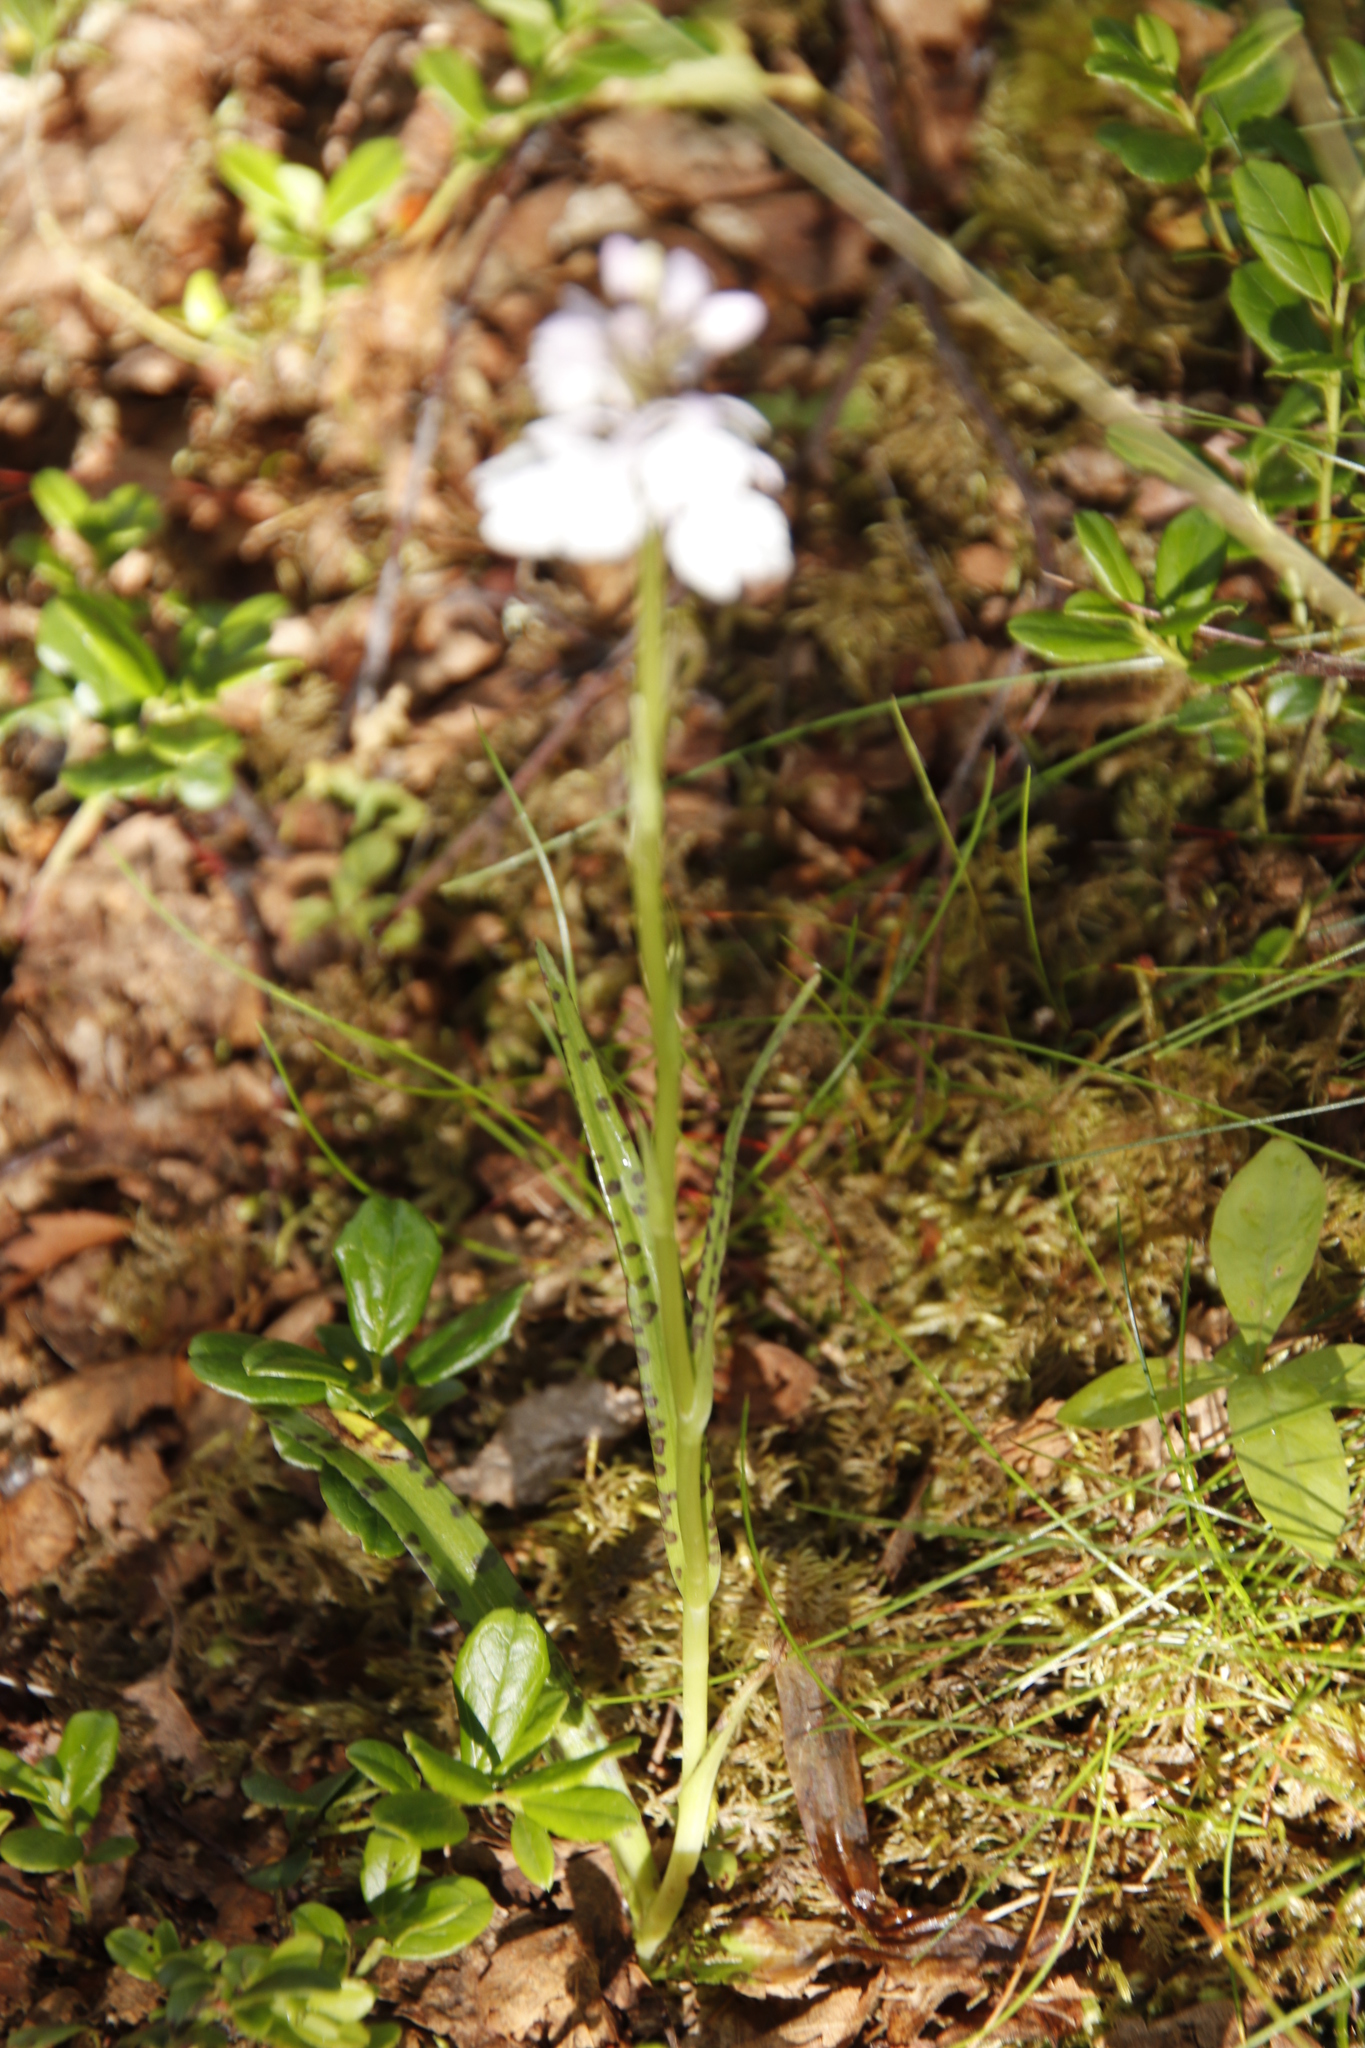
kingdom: Plantae
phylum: Tracheophyta
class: Liliopsida
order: Asparagales
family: Orchidaceae
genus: Dactylorhiza
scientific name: Dactylorhiza maculata
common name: Heath spotted-orchid
